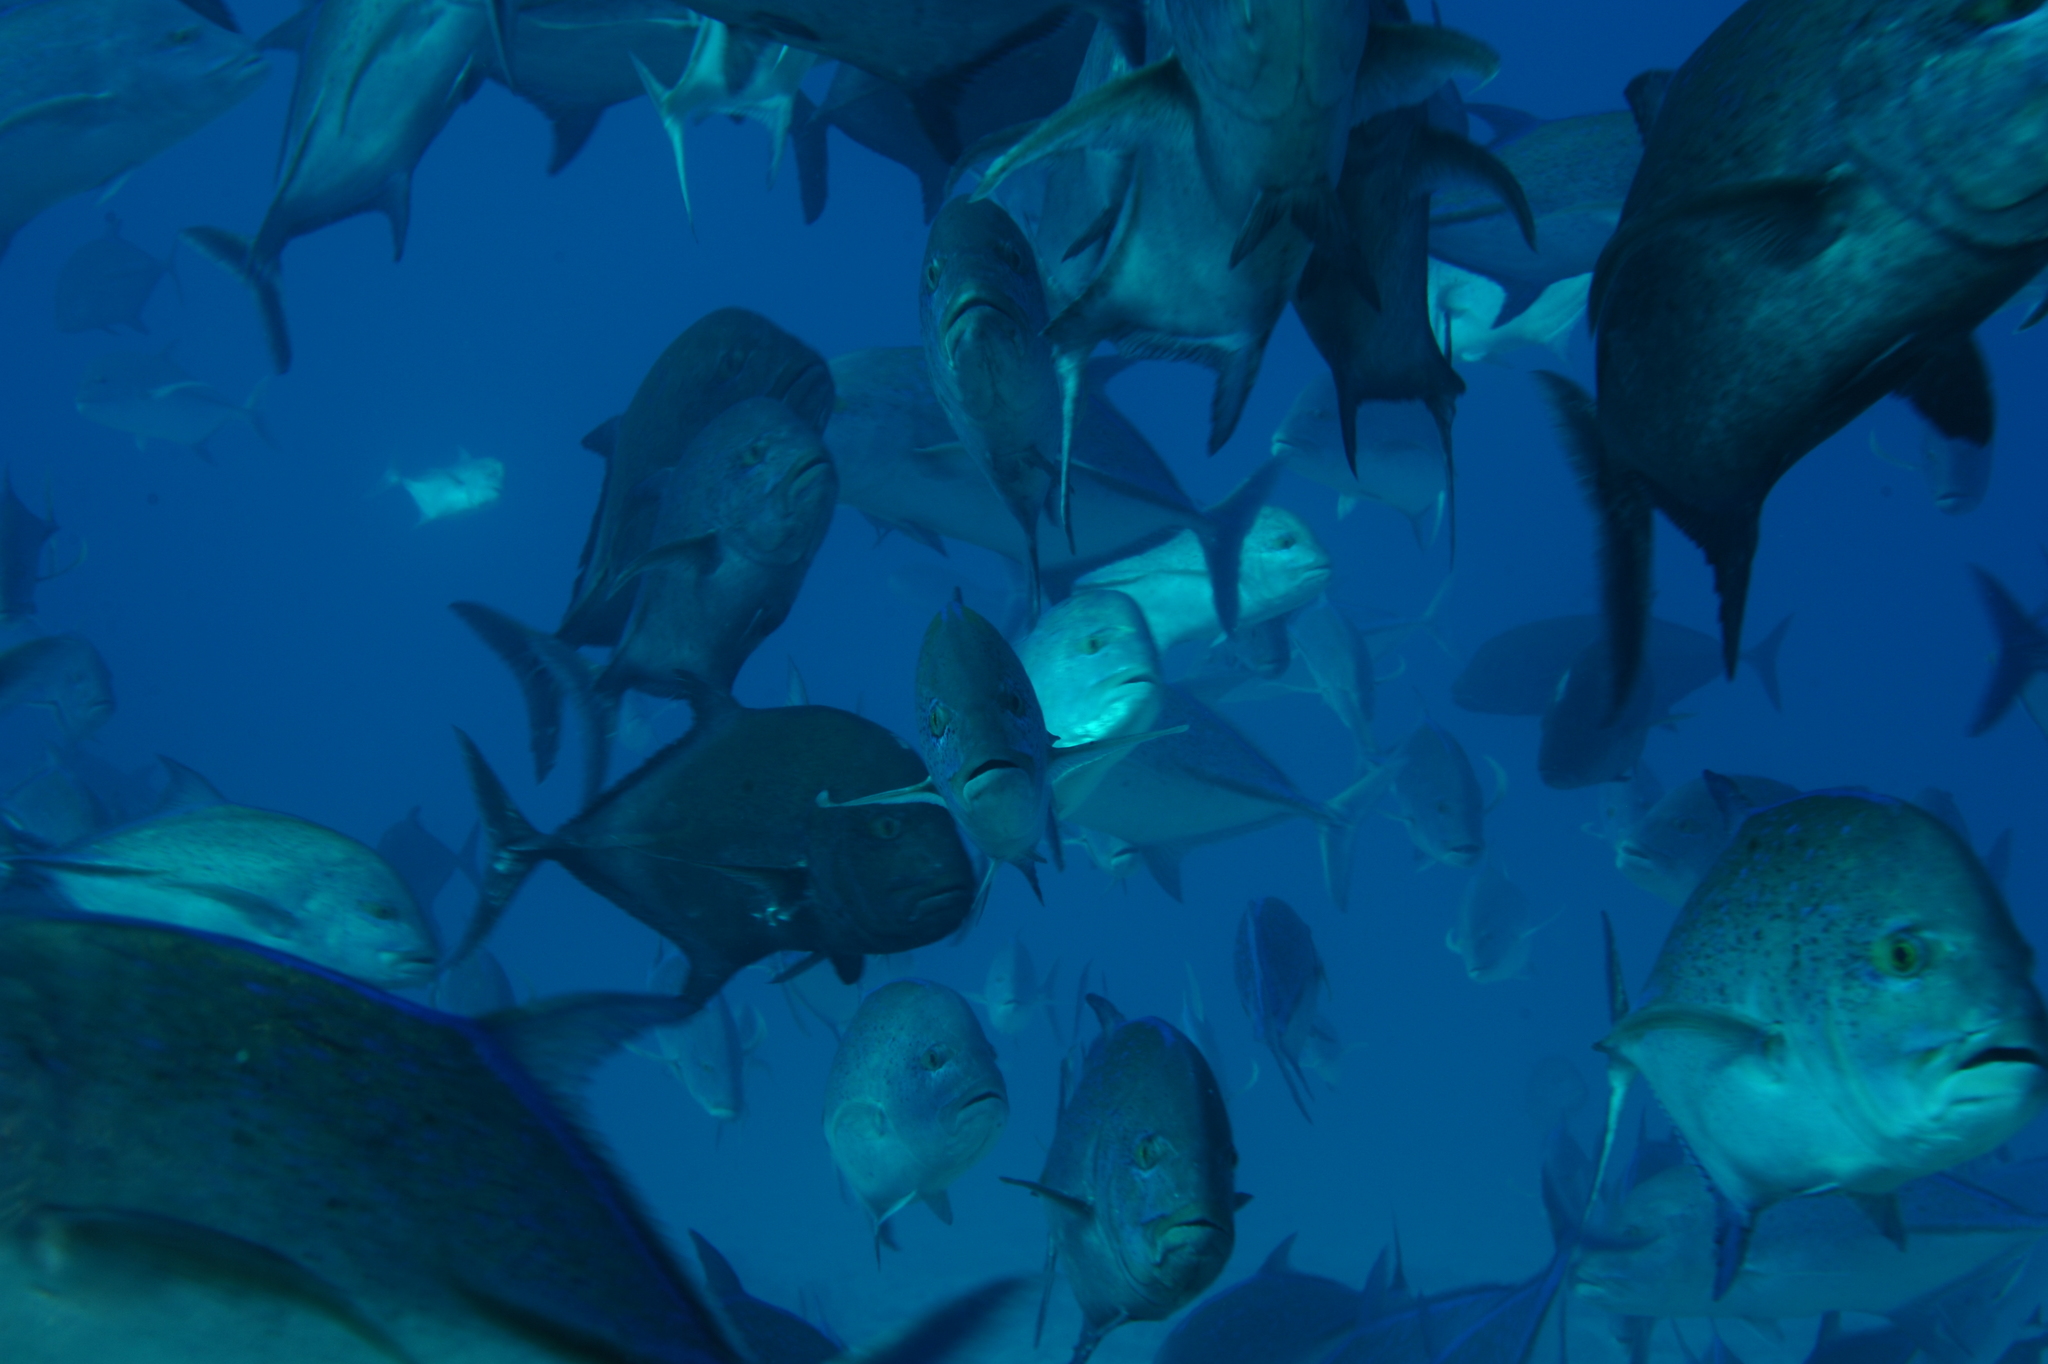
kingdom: Animalia
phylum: Chordata
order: Perciformes
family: Carangidae
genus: Caranx
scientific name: Caranx melampygus
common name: Bluefin trevally
